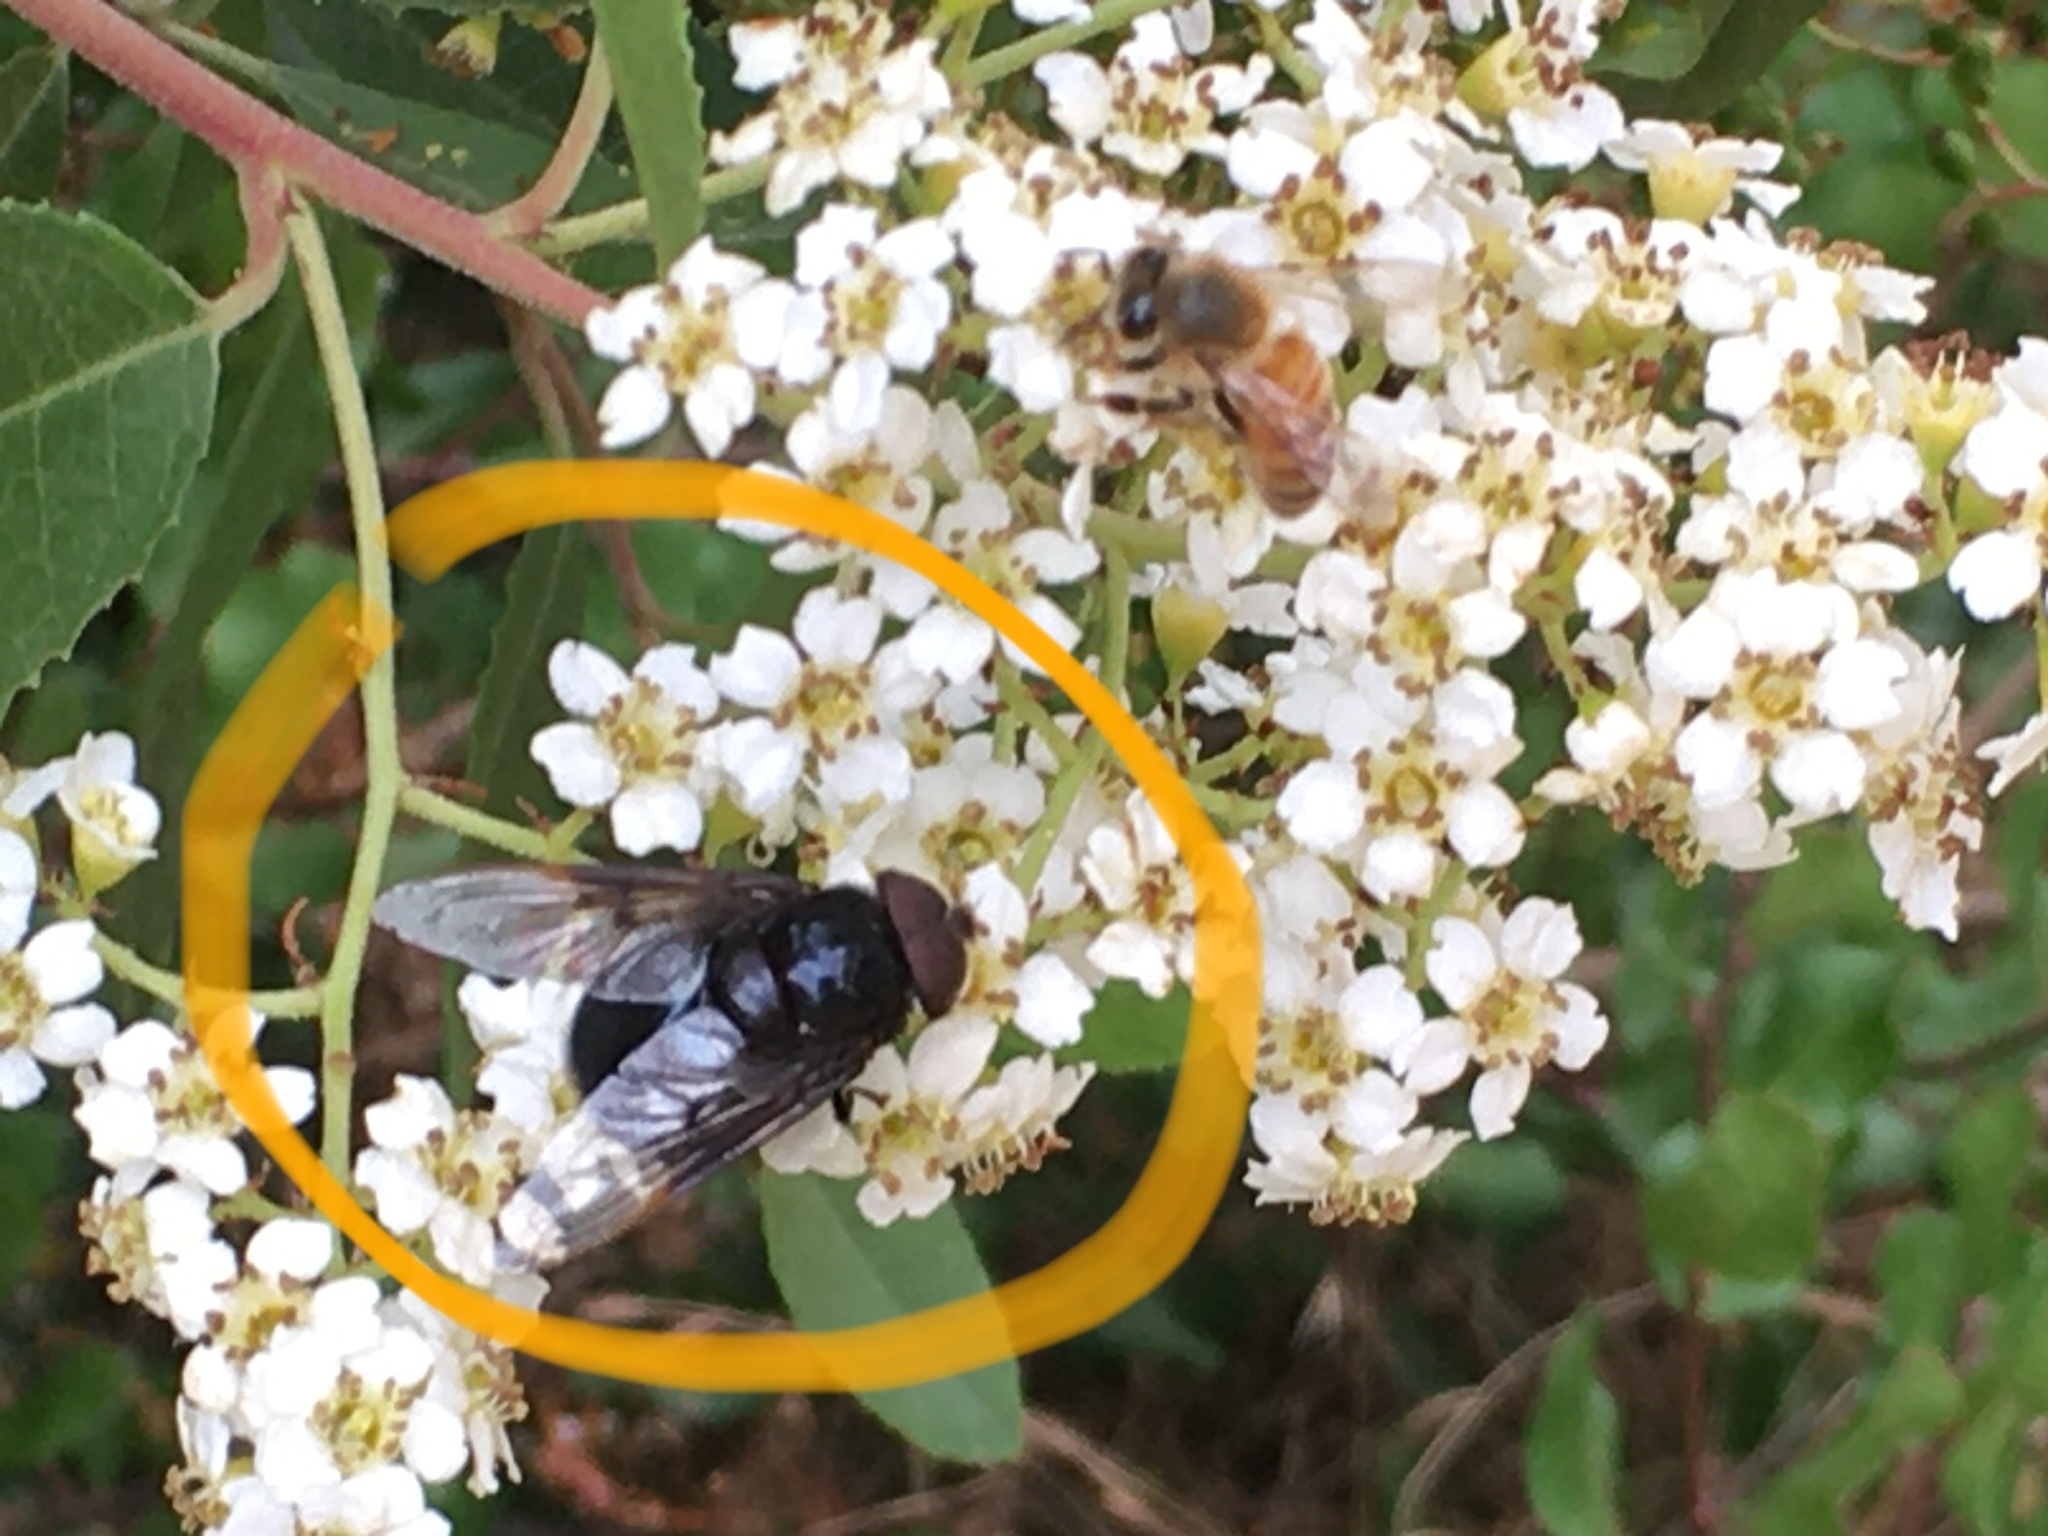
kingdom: Animalia
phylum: Arthropoda
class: Insecta
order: Diptera
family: Syrphidae
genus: Copestylum
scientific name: Copestylum mexicanum
